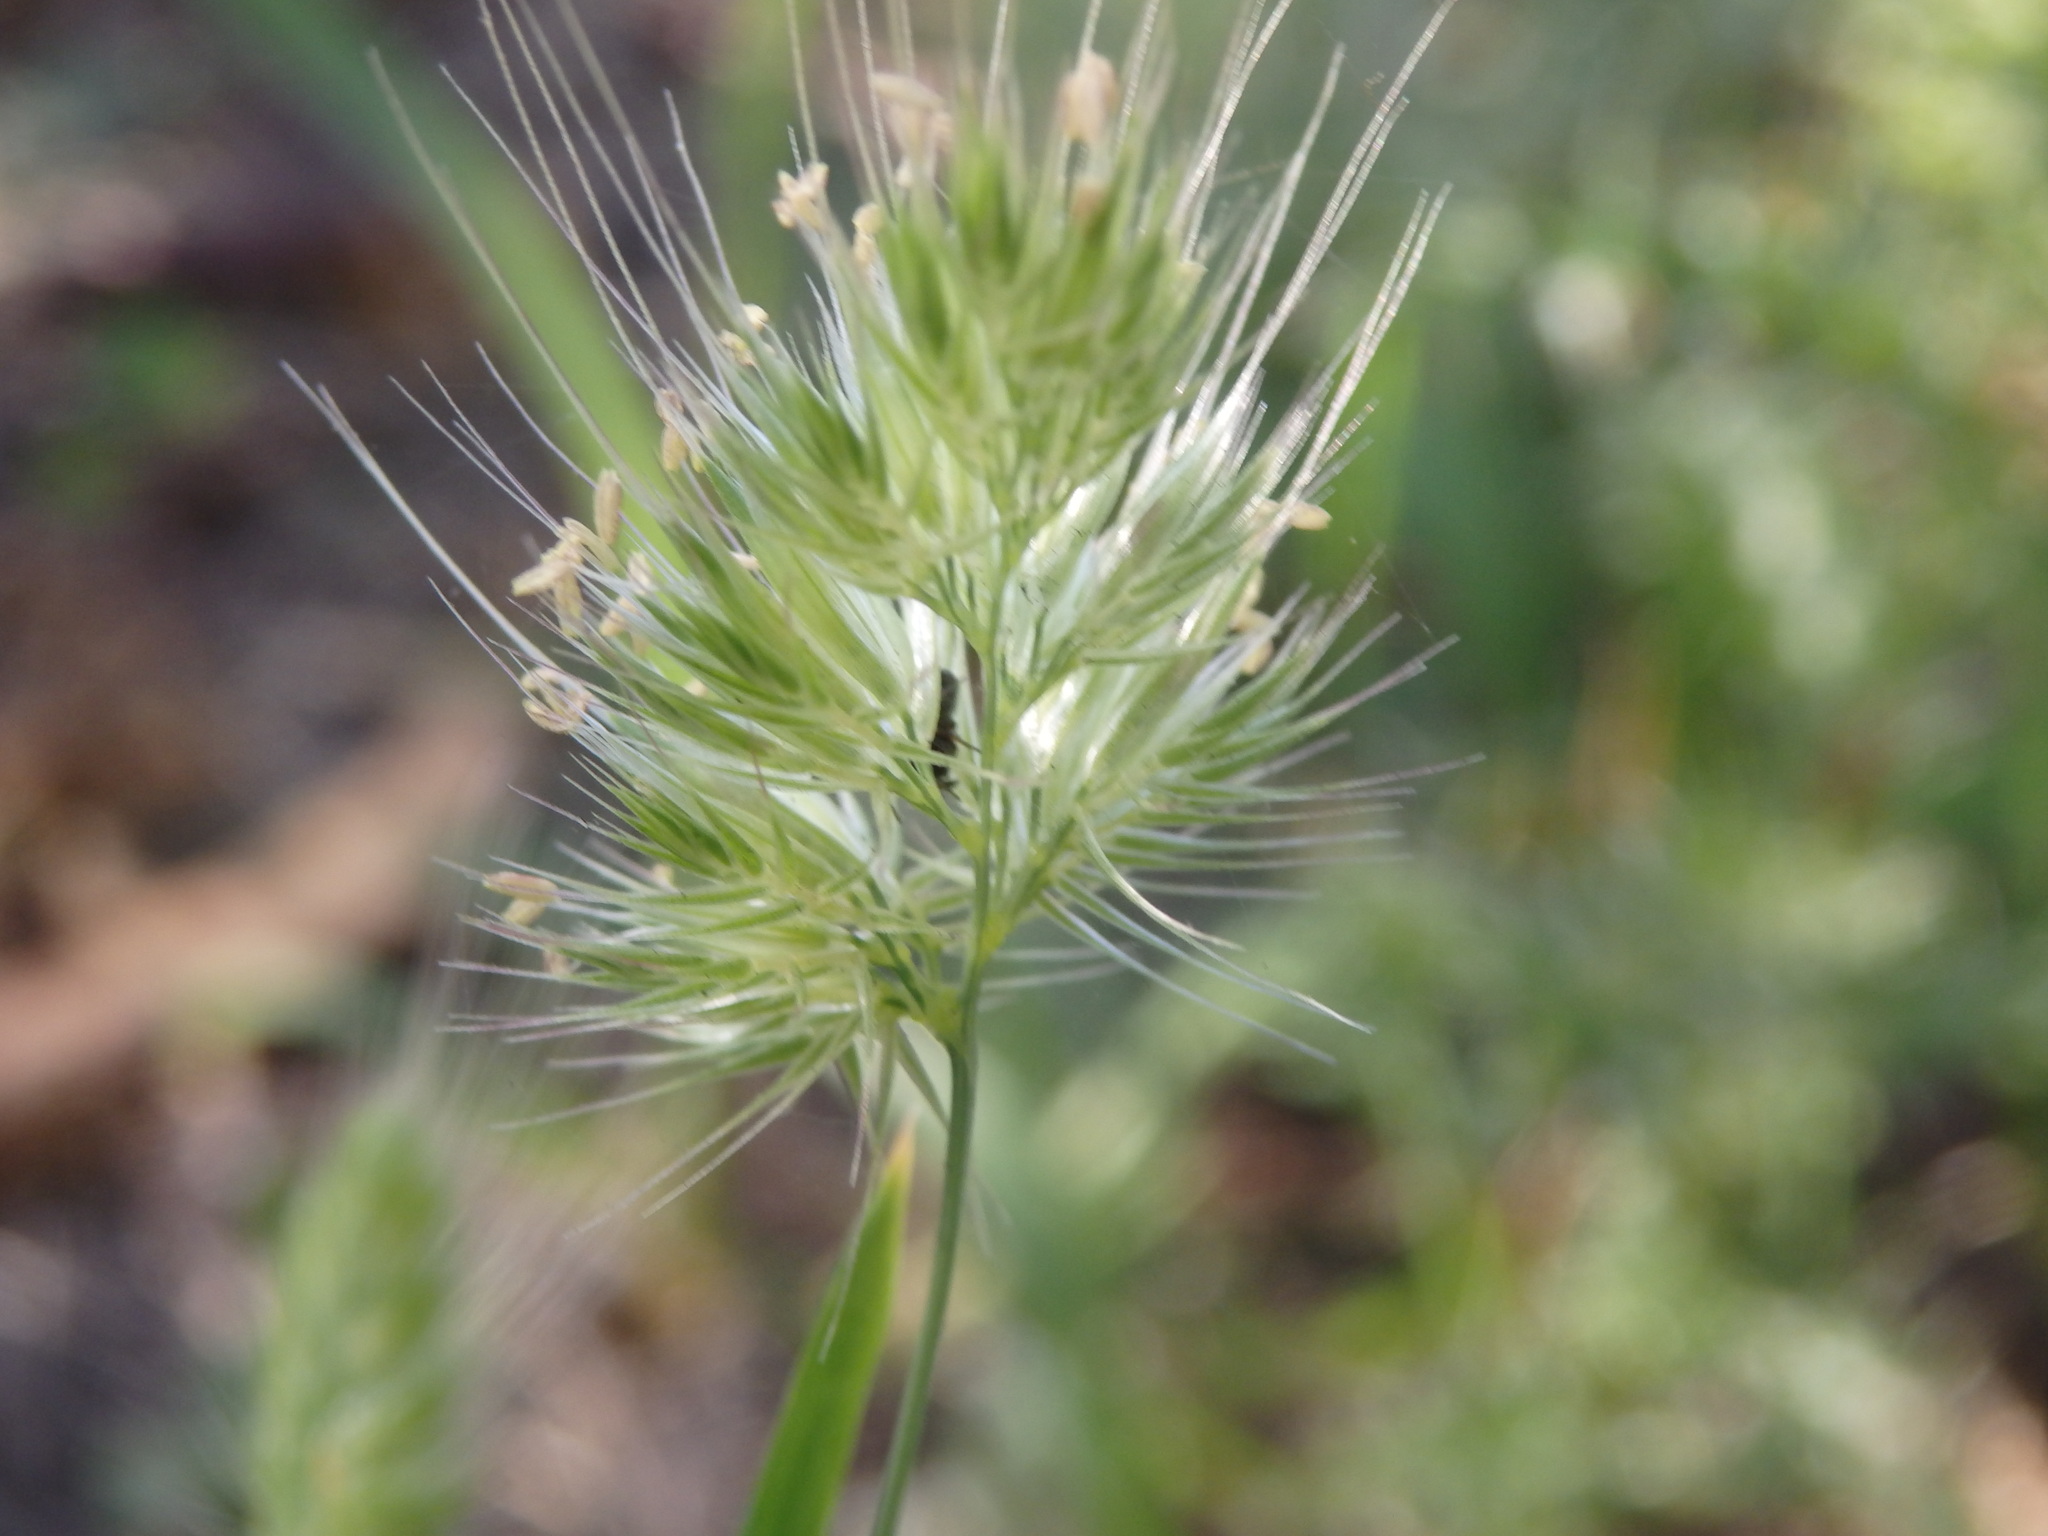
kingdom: Plantae
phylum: Tracheophyta
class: Liliopsida
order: Poales
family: Poaceae
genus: Cynosurus
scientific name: Cynosurus echinatus
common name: Rough dog's-tail
